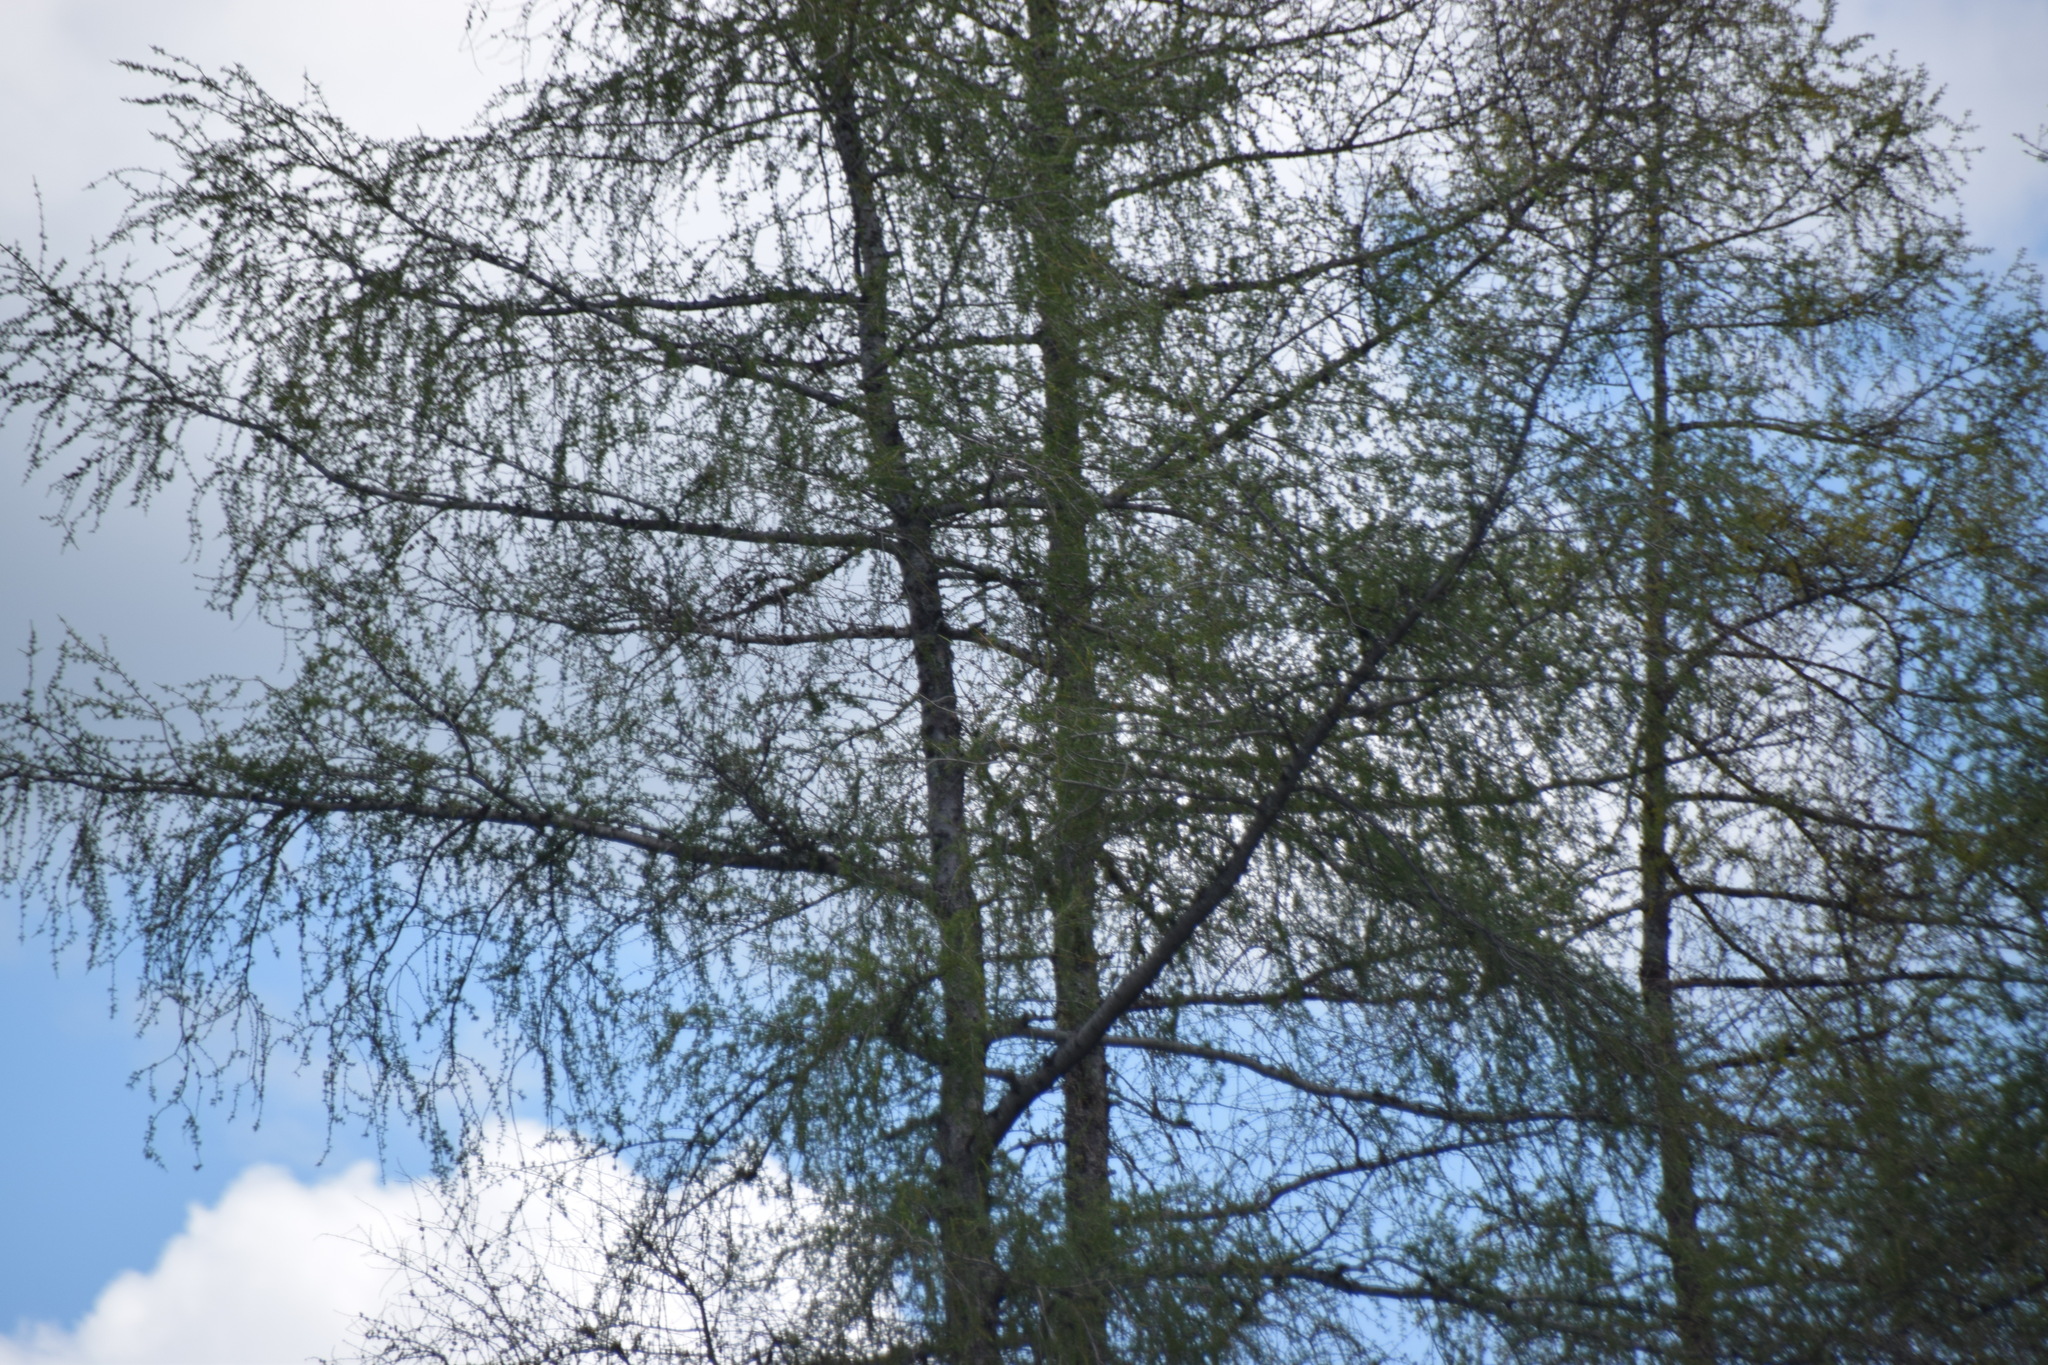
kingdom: Plantae
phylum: Tracheophyta
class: Pinopsida
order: Pinales
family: Pinaceae
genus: Larix
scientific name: Larix laricina
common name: American larch
